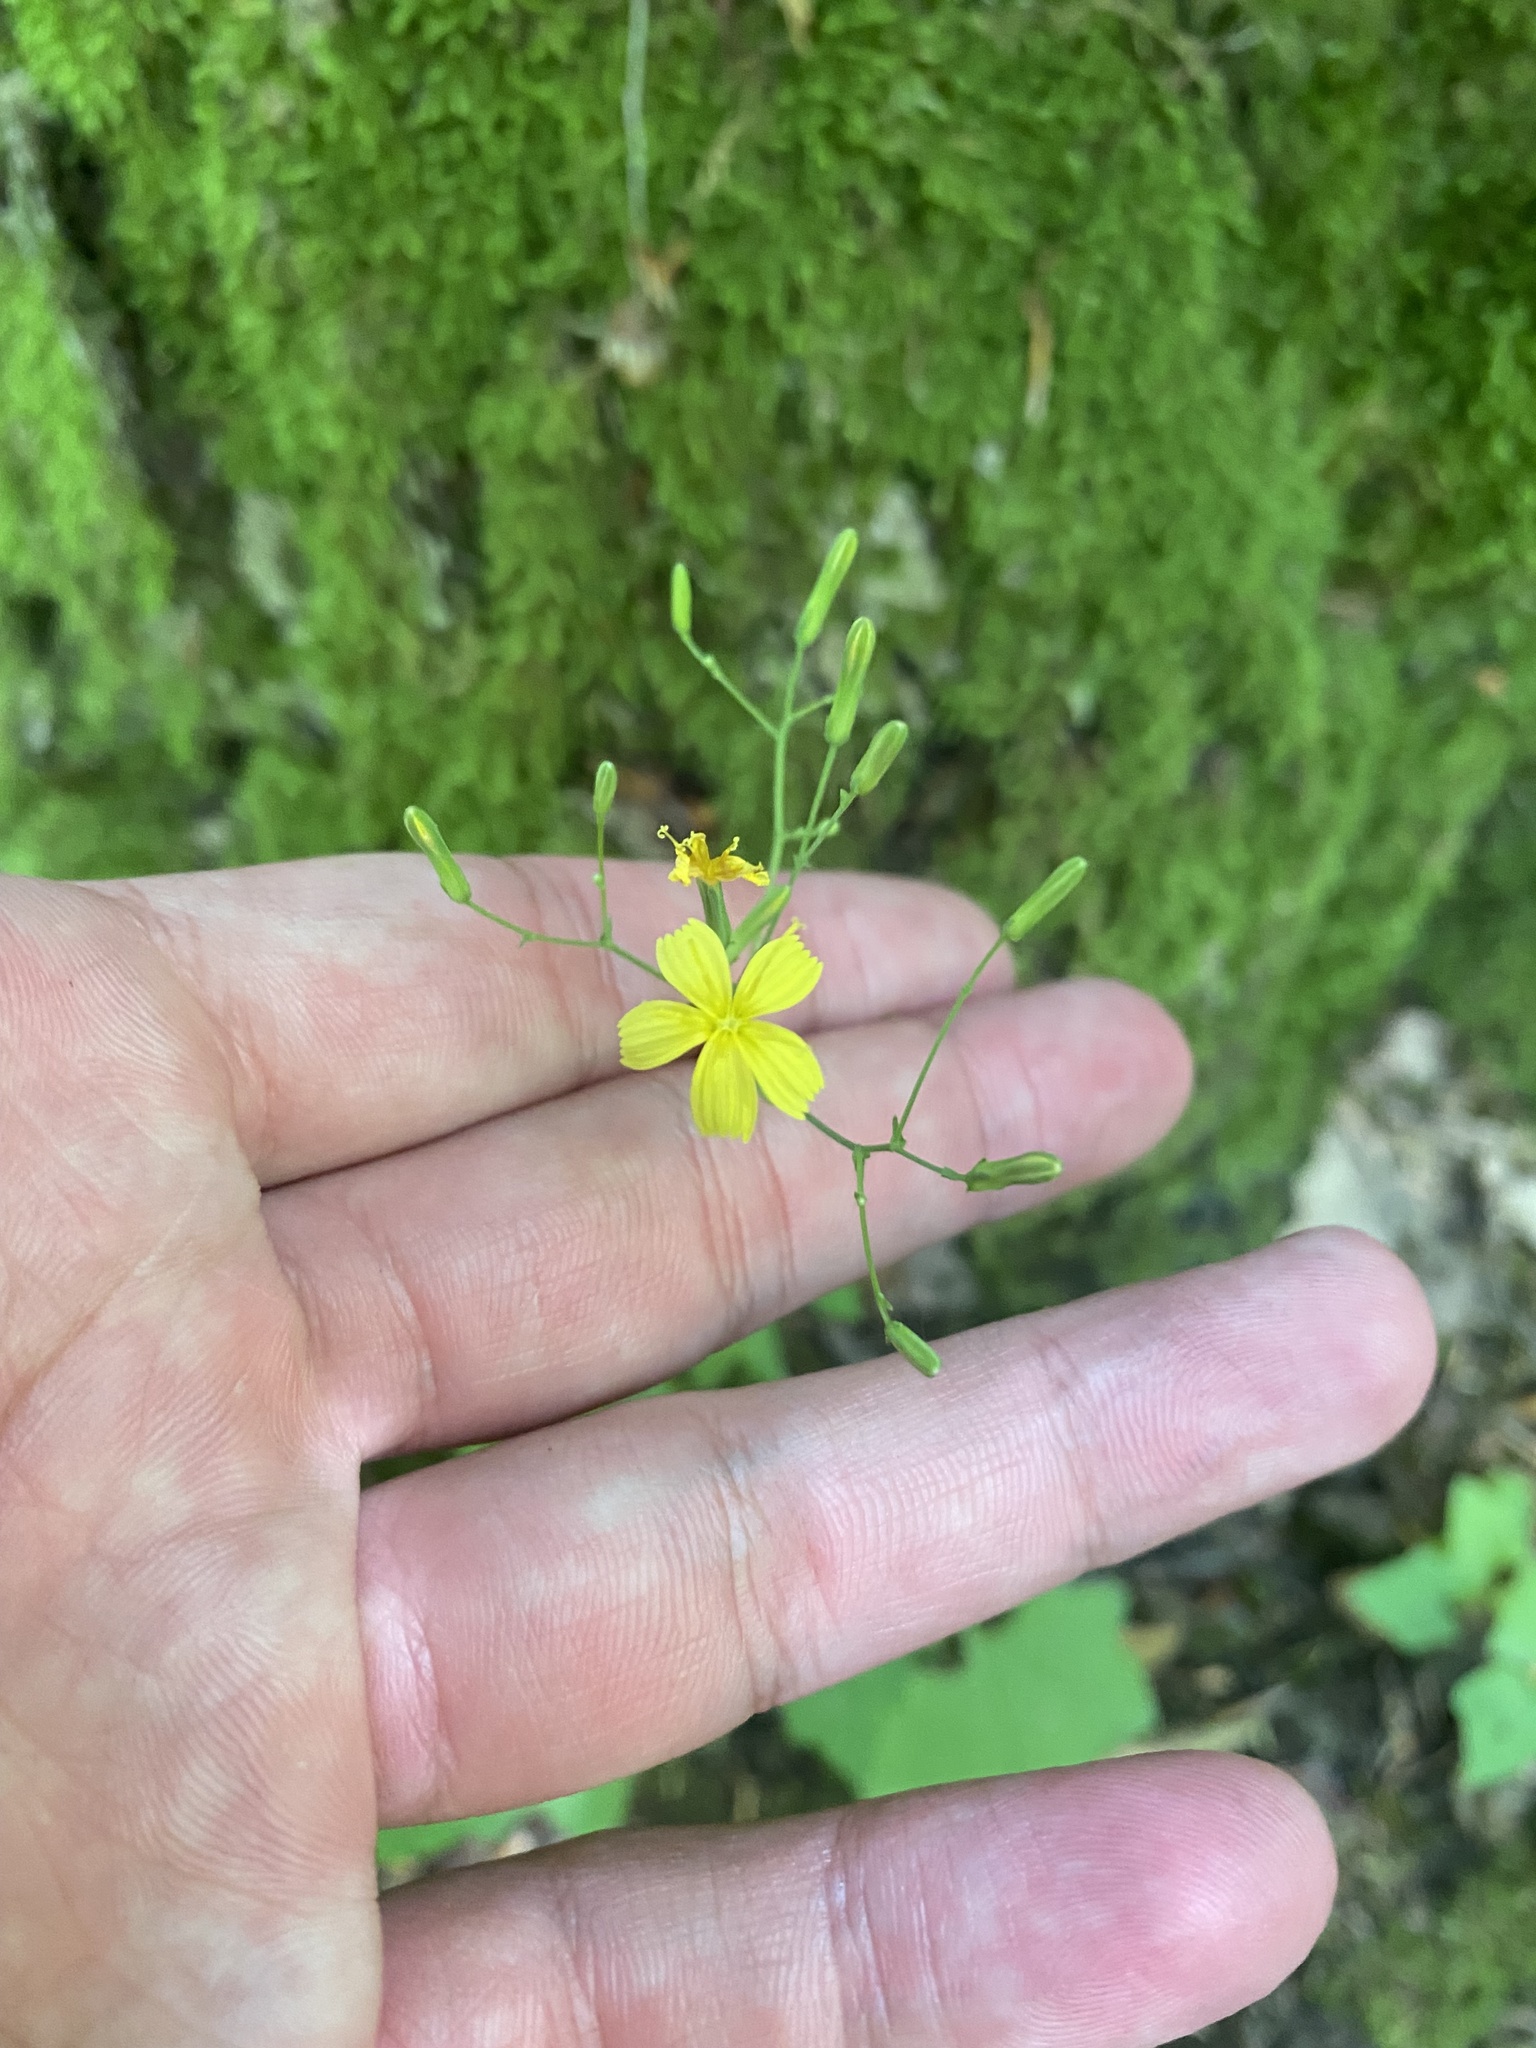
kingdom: Plantae
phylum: Tracheophyta
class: Magnoliopsida
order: Asterales
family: Asteraceae
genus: Mycelis
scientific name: Mycelis muralis
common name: Wall lettuce
